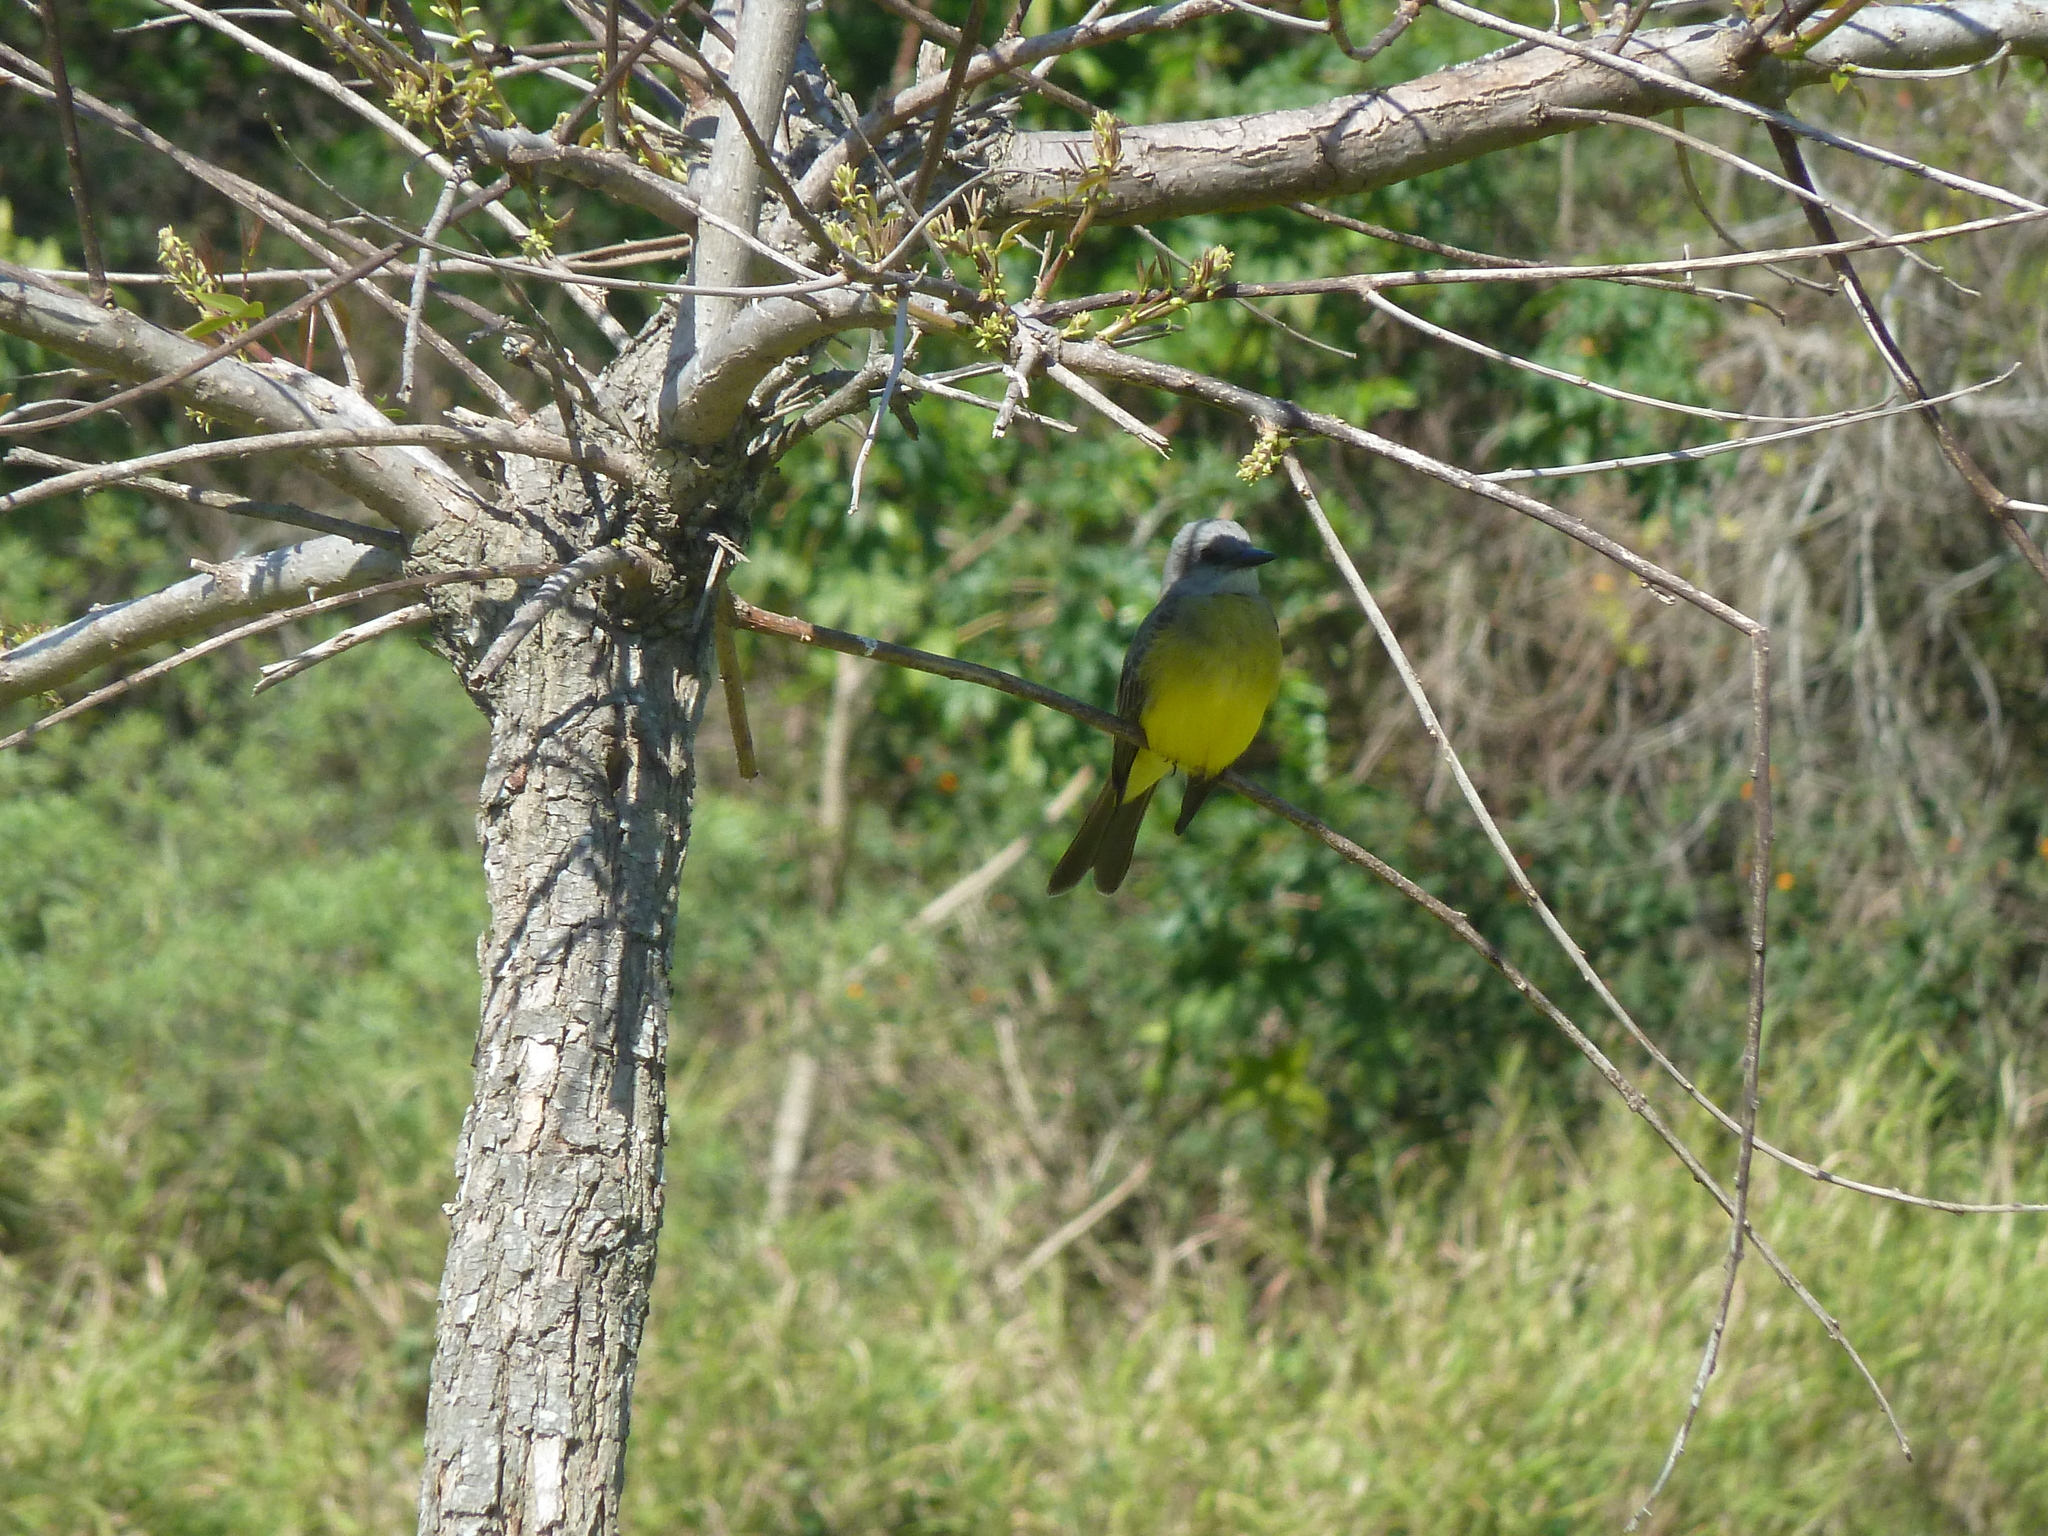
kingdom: Animalia
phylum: Chordata
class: Aves
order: Passeriformes
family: Tyrannidae
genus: Tyrannus
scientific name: Tyrannus melancholicus
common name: Tropical kingbird
